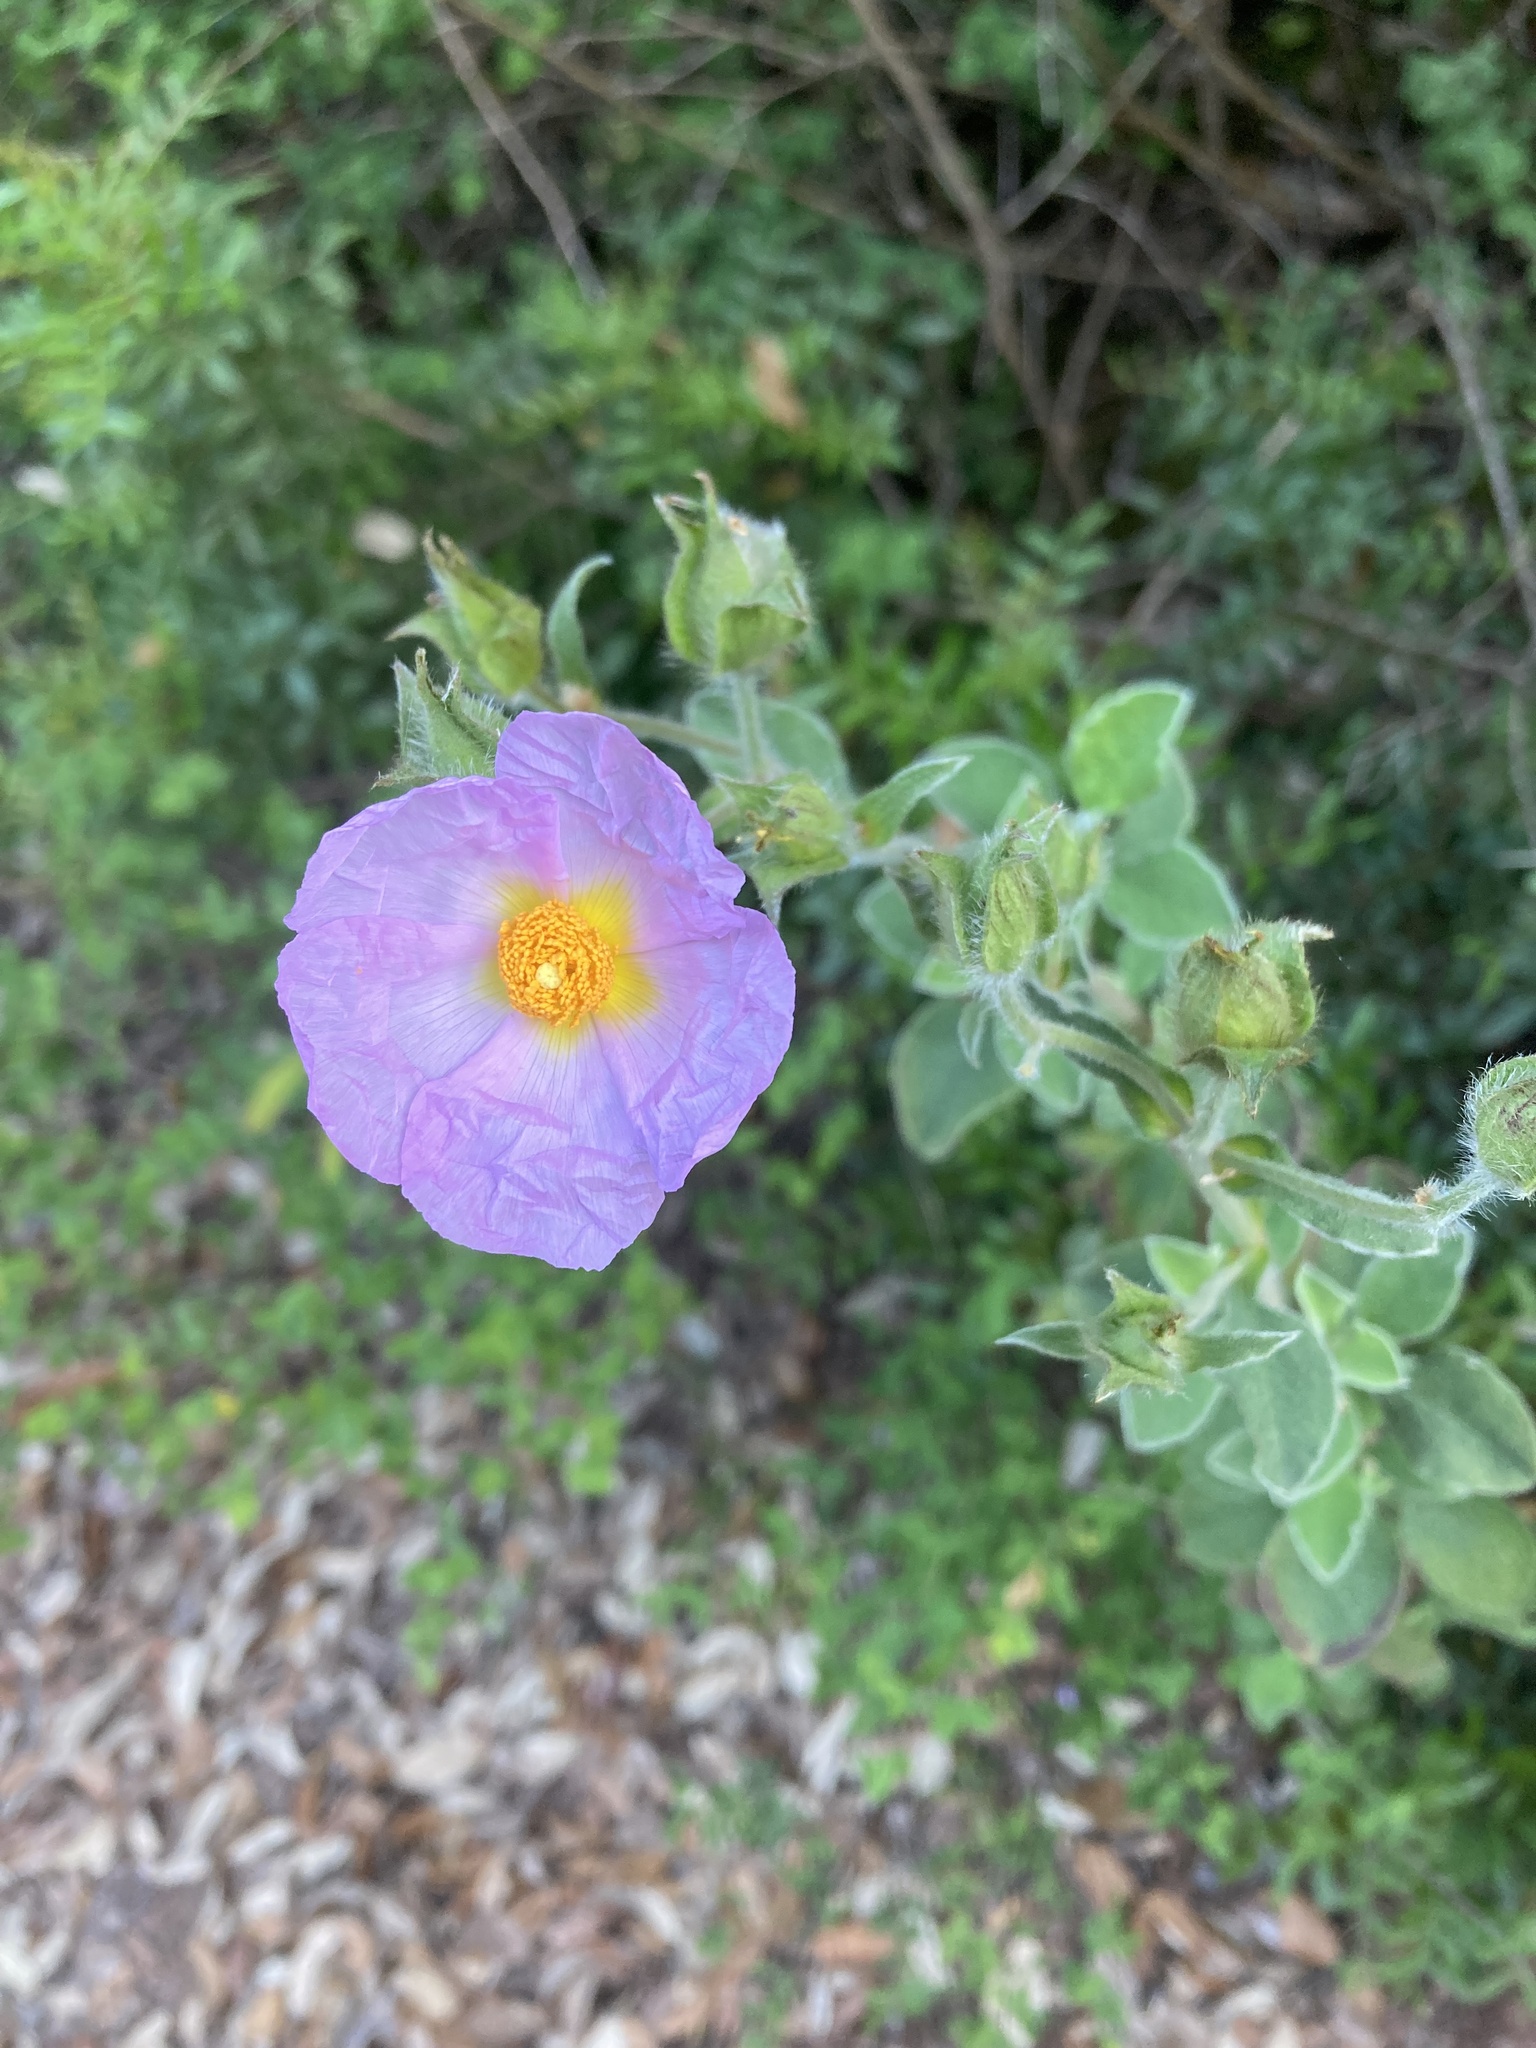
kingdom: Plantae
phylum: Tracheophyta
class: Magnoliopsida
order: Malvales
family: Cistaceae
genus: Cistus
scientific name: Cistus creticus
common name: Cretan rockrose
